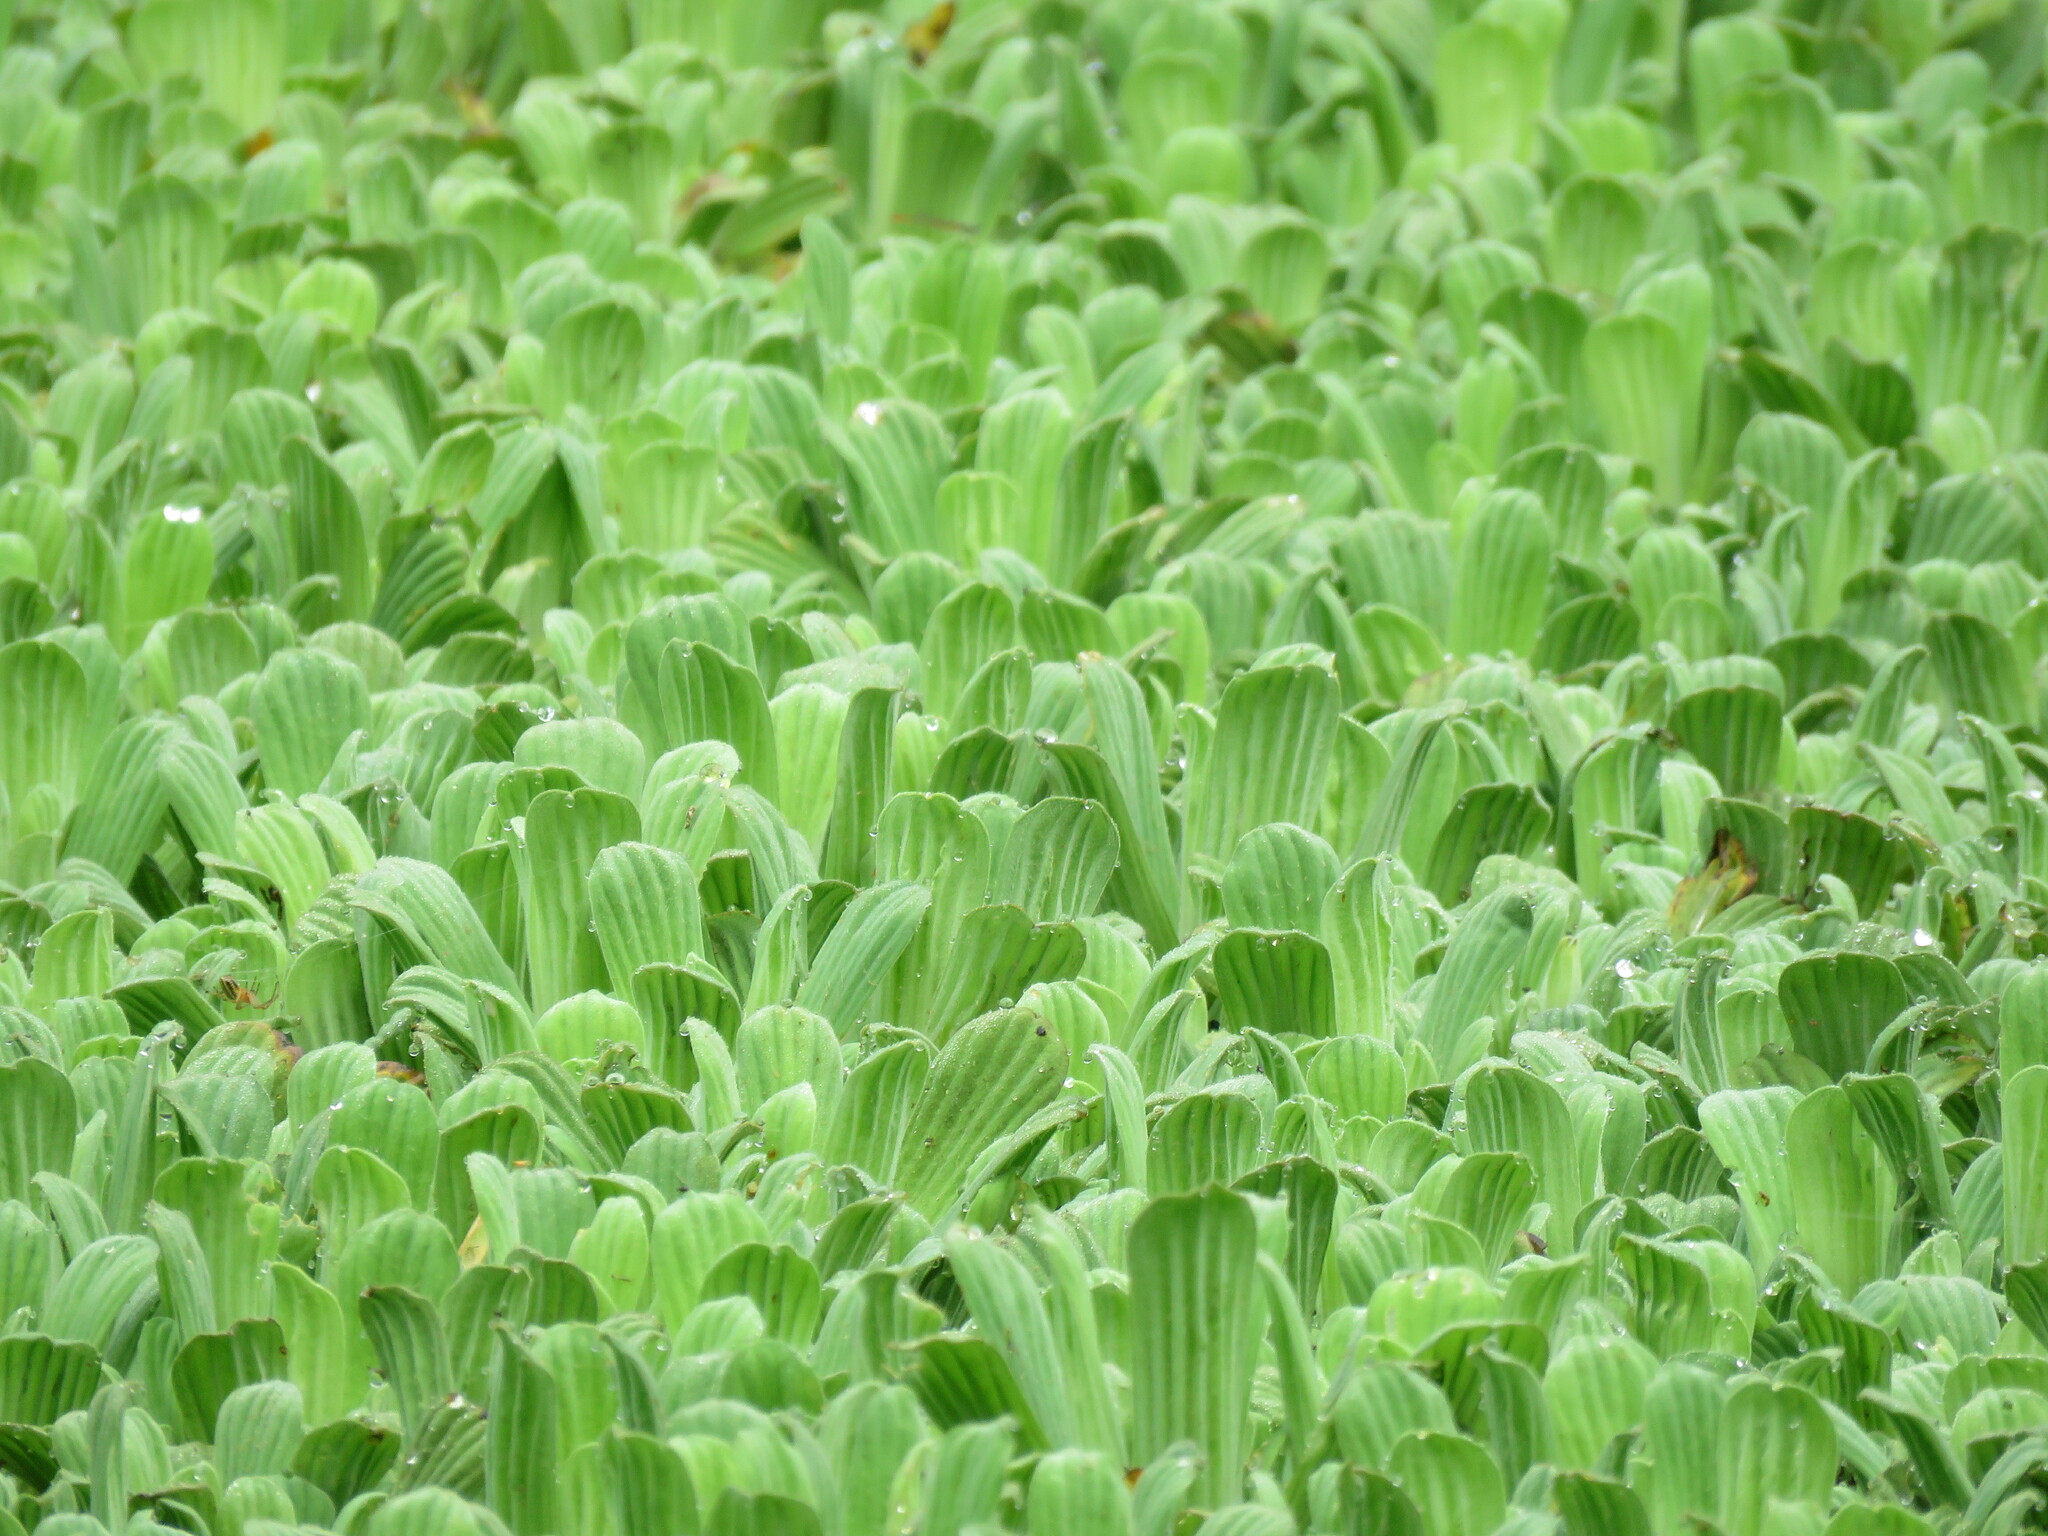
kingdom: Plantae
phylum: Tracheophyta
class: Liliopsida
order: Alismatales
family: Araceae
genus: Pistia
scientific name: Pistia stratiotes
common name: Water lettuce
